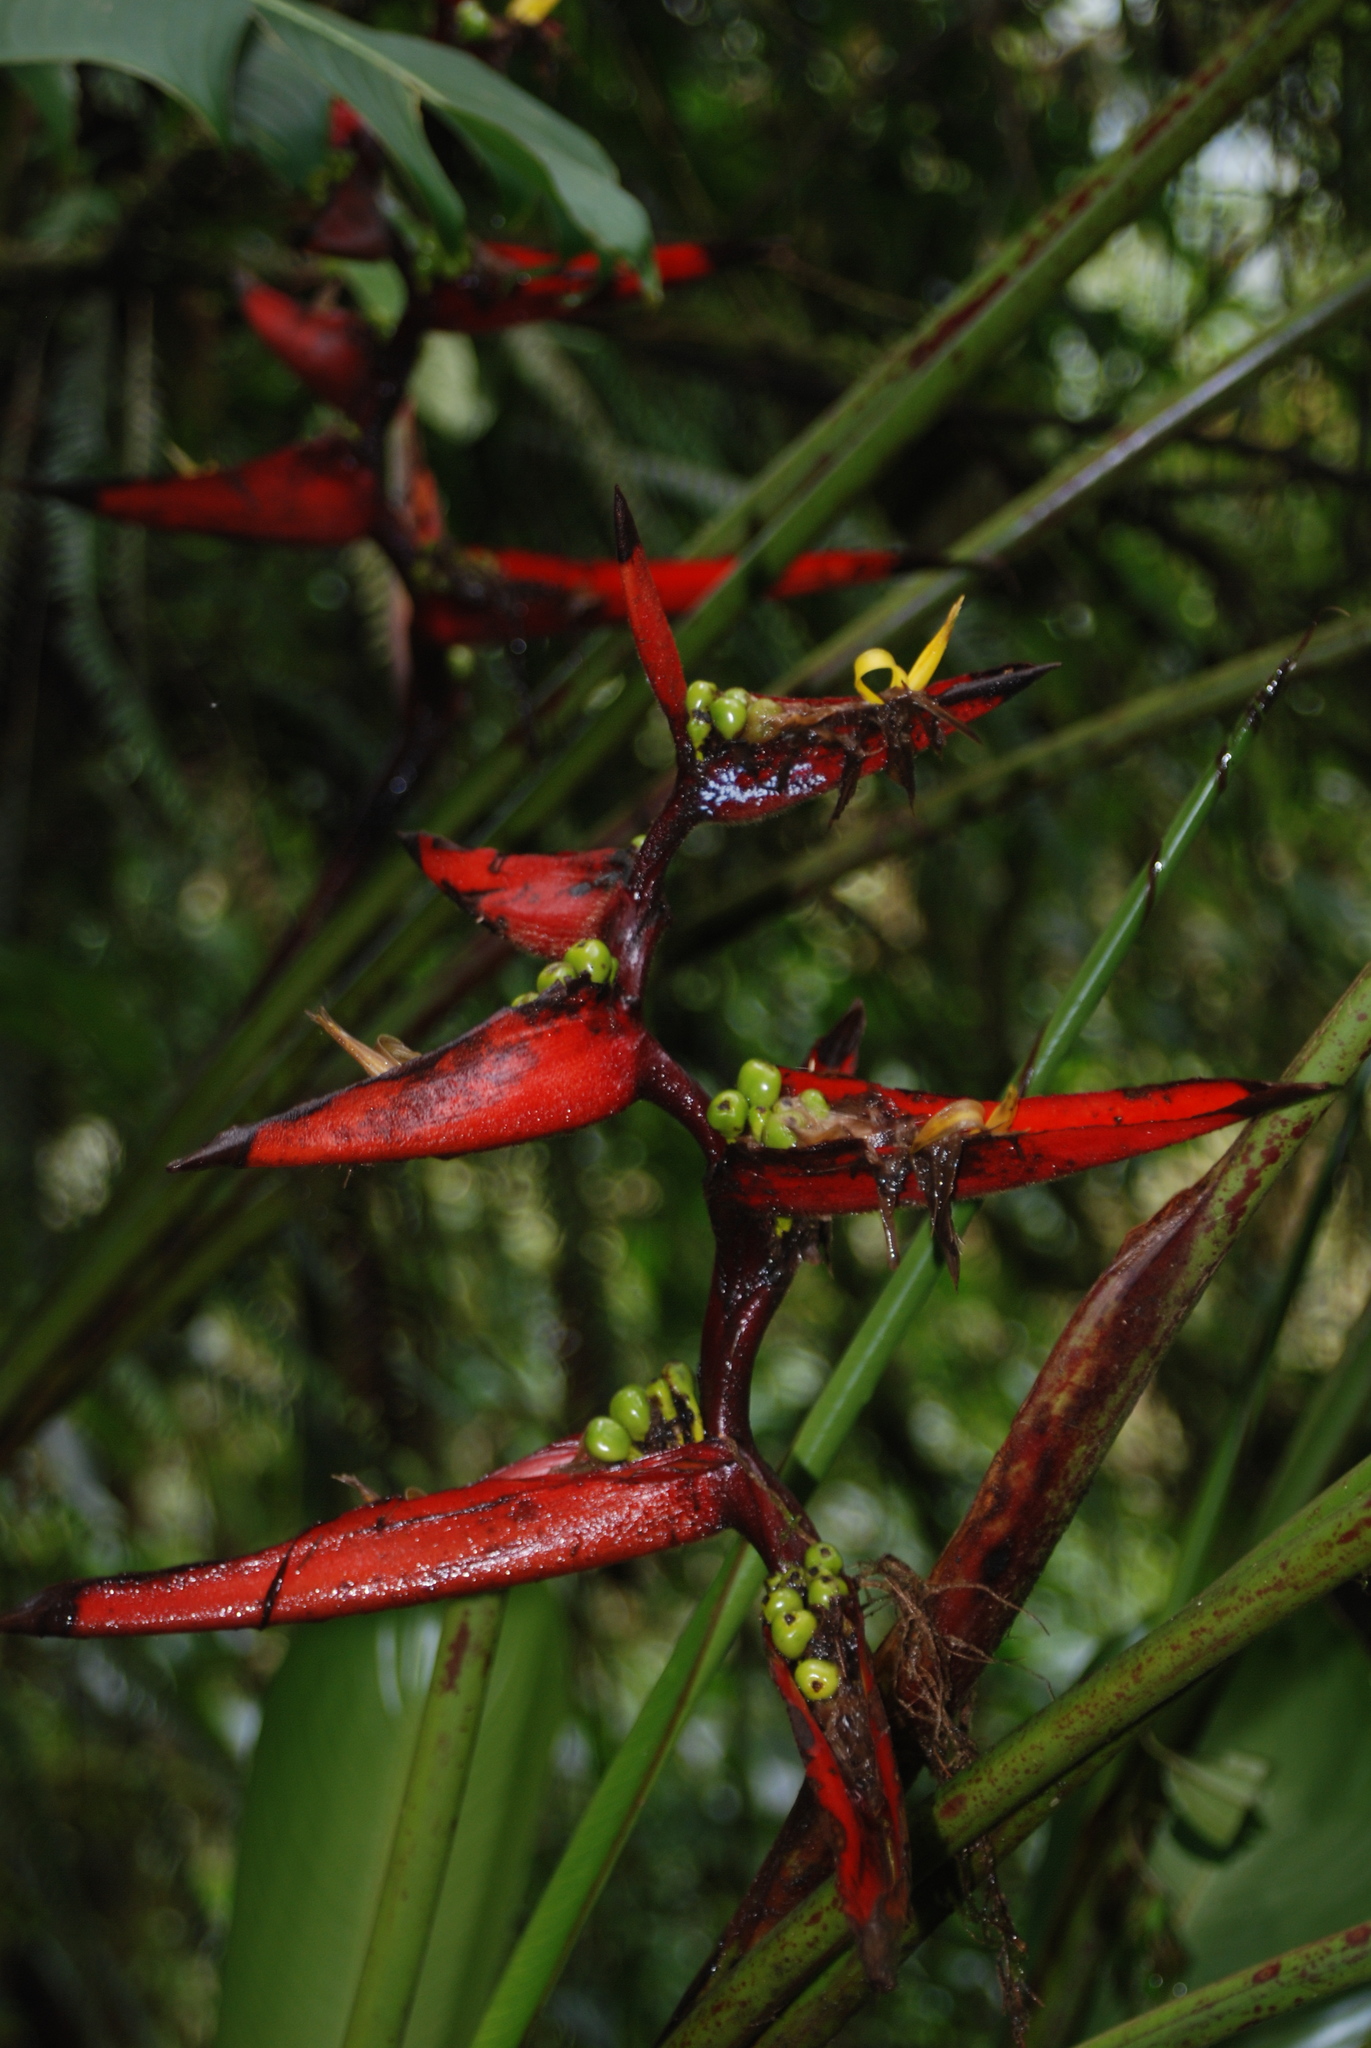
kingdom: Plantae
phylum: Tracheophyta
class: Liliopsida
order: Zingiberales
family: Heliconiaceae
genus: Heliconia
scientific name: Heliconia tortuosa
